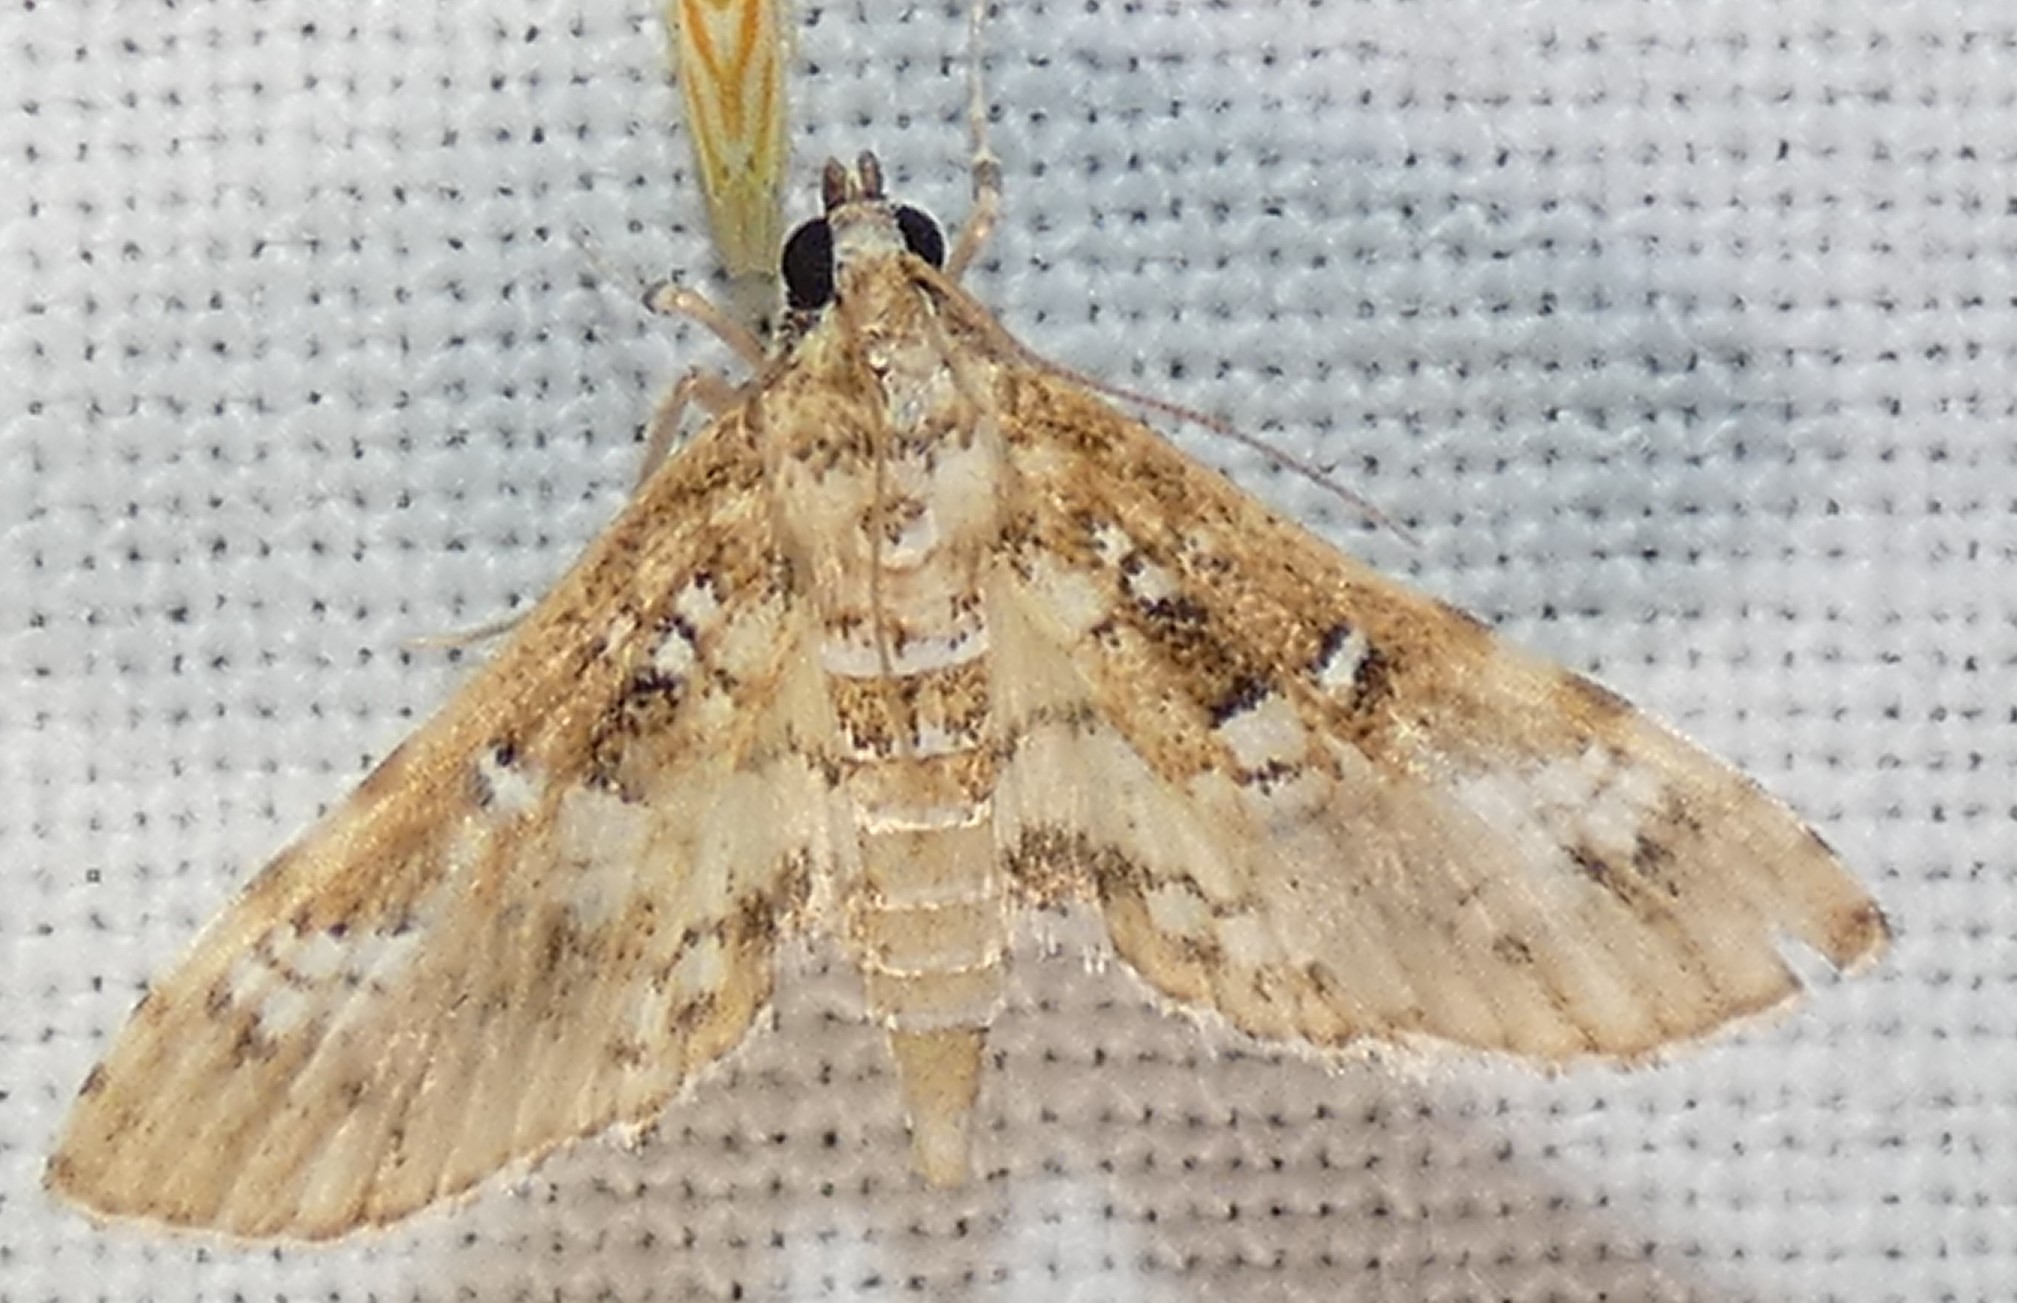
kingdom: Animalia
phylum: Arthropoda
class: Insecta
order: Lepidoptera
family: Crambidae
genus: Samea
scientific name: Samea multiplicalis
